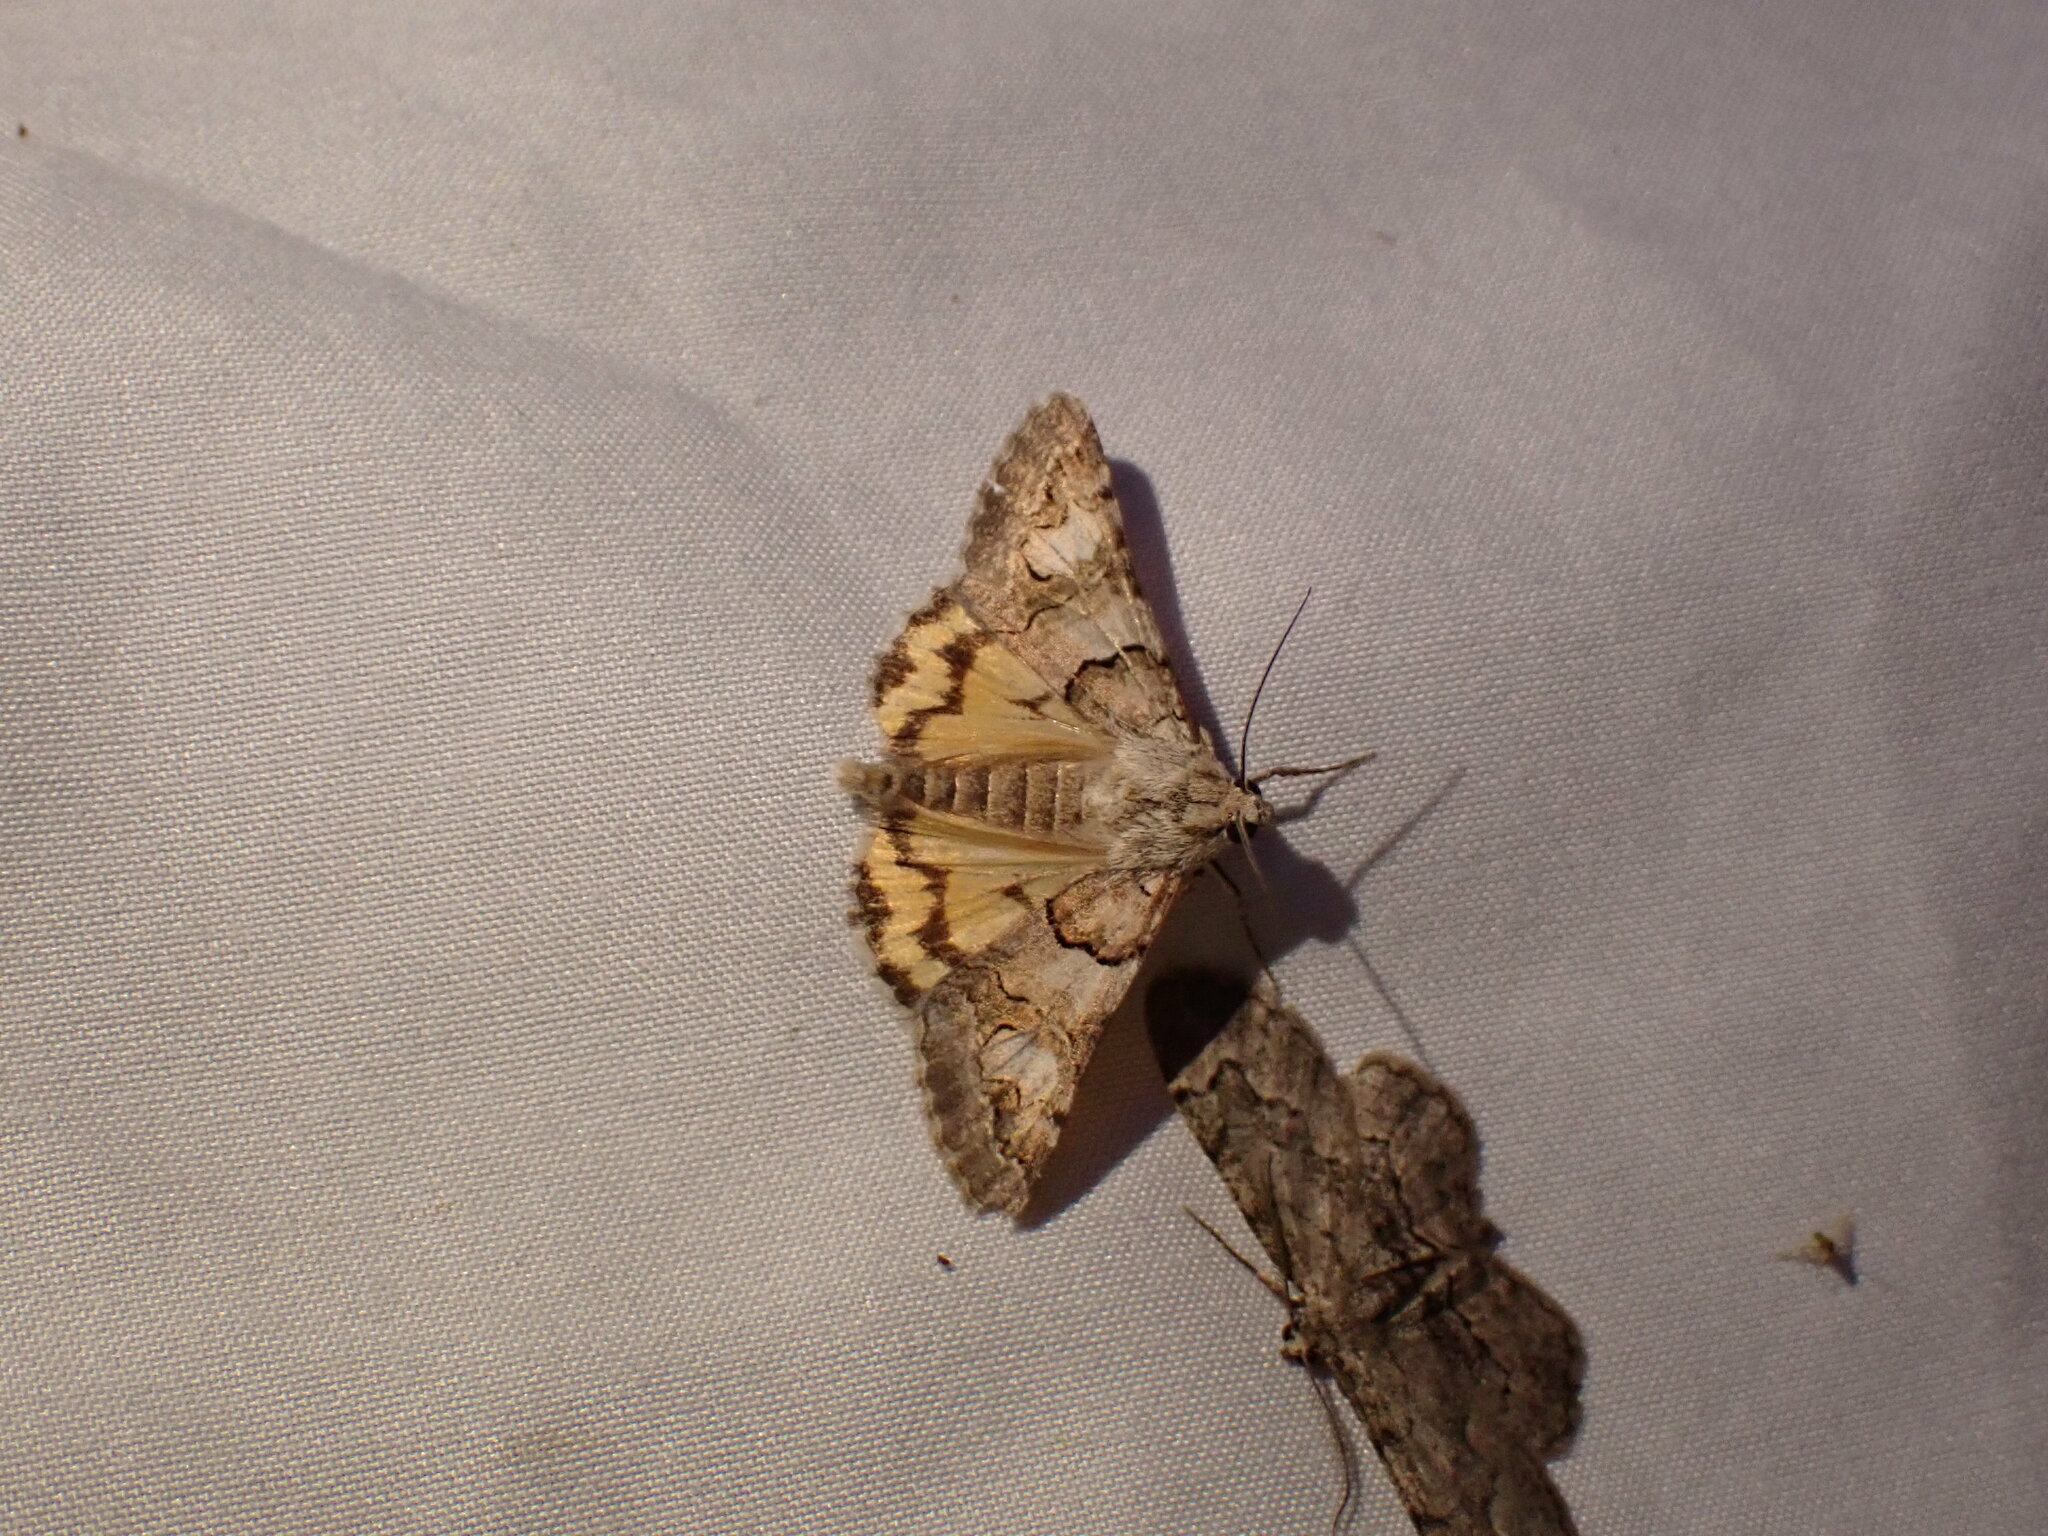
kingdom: Animalia
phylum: Arthropoda
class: Insecta
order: Lepidoptera
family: Erebidae
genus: Drasteria
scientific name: Drasteria howlandii
